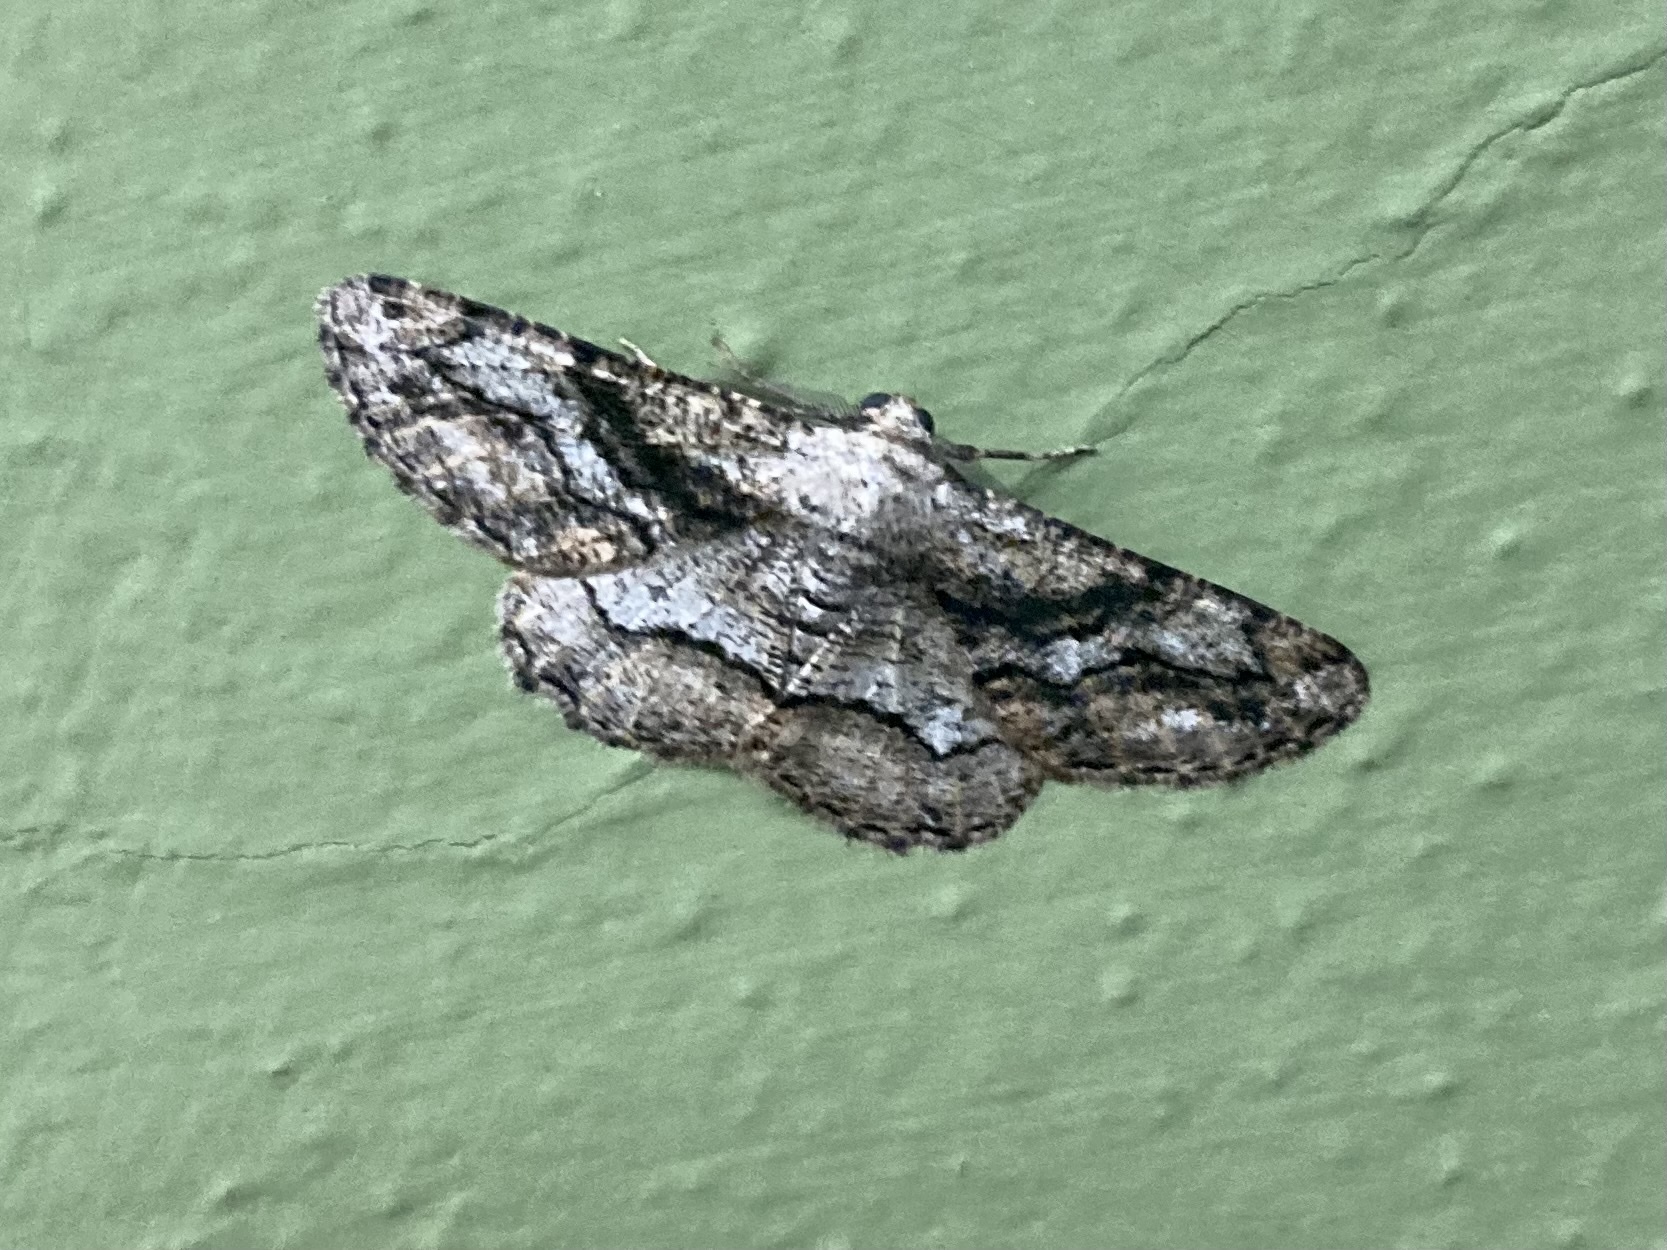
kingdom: Animalia
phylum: Arthropoda
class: Insecta
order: Lepidoptera
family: Geometridae
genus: Synopsia
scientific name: Synopsia sociaria
